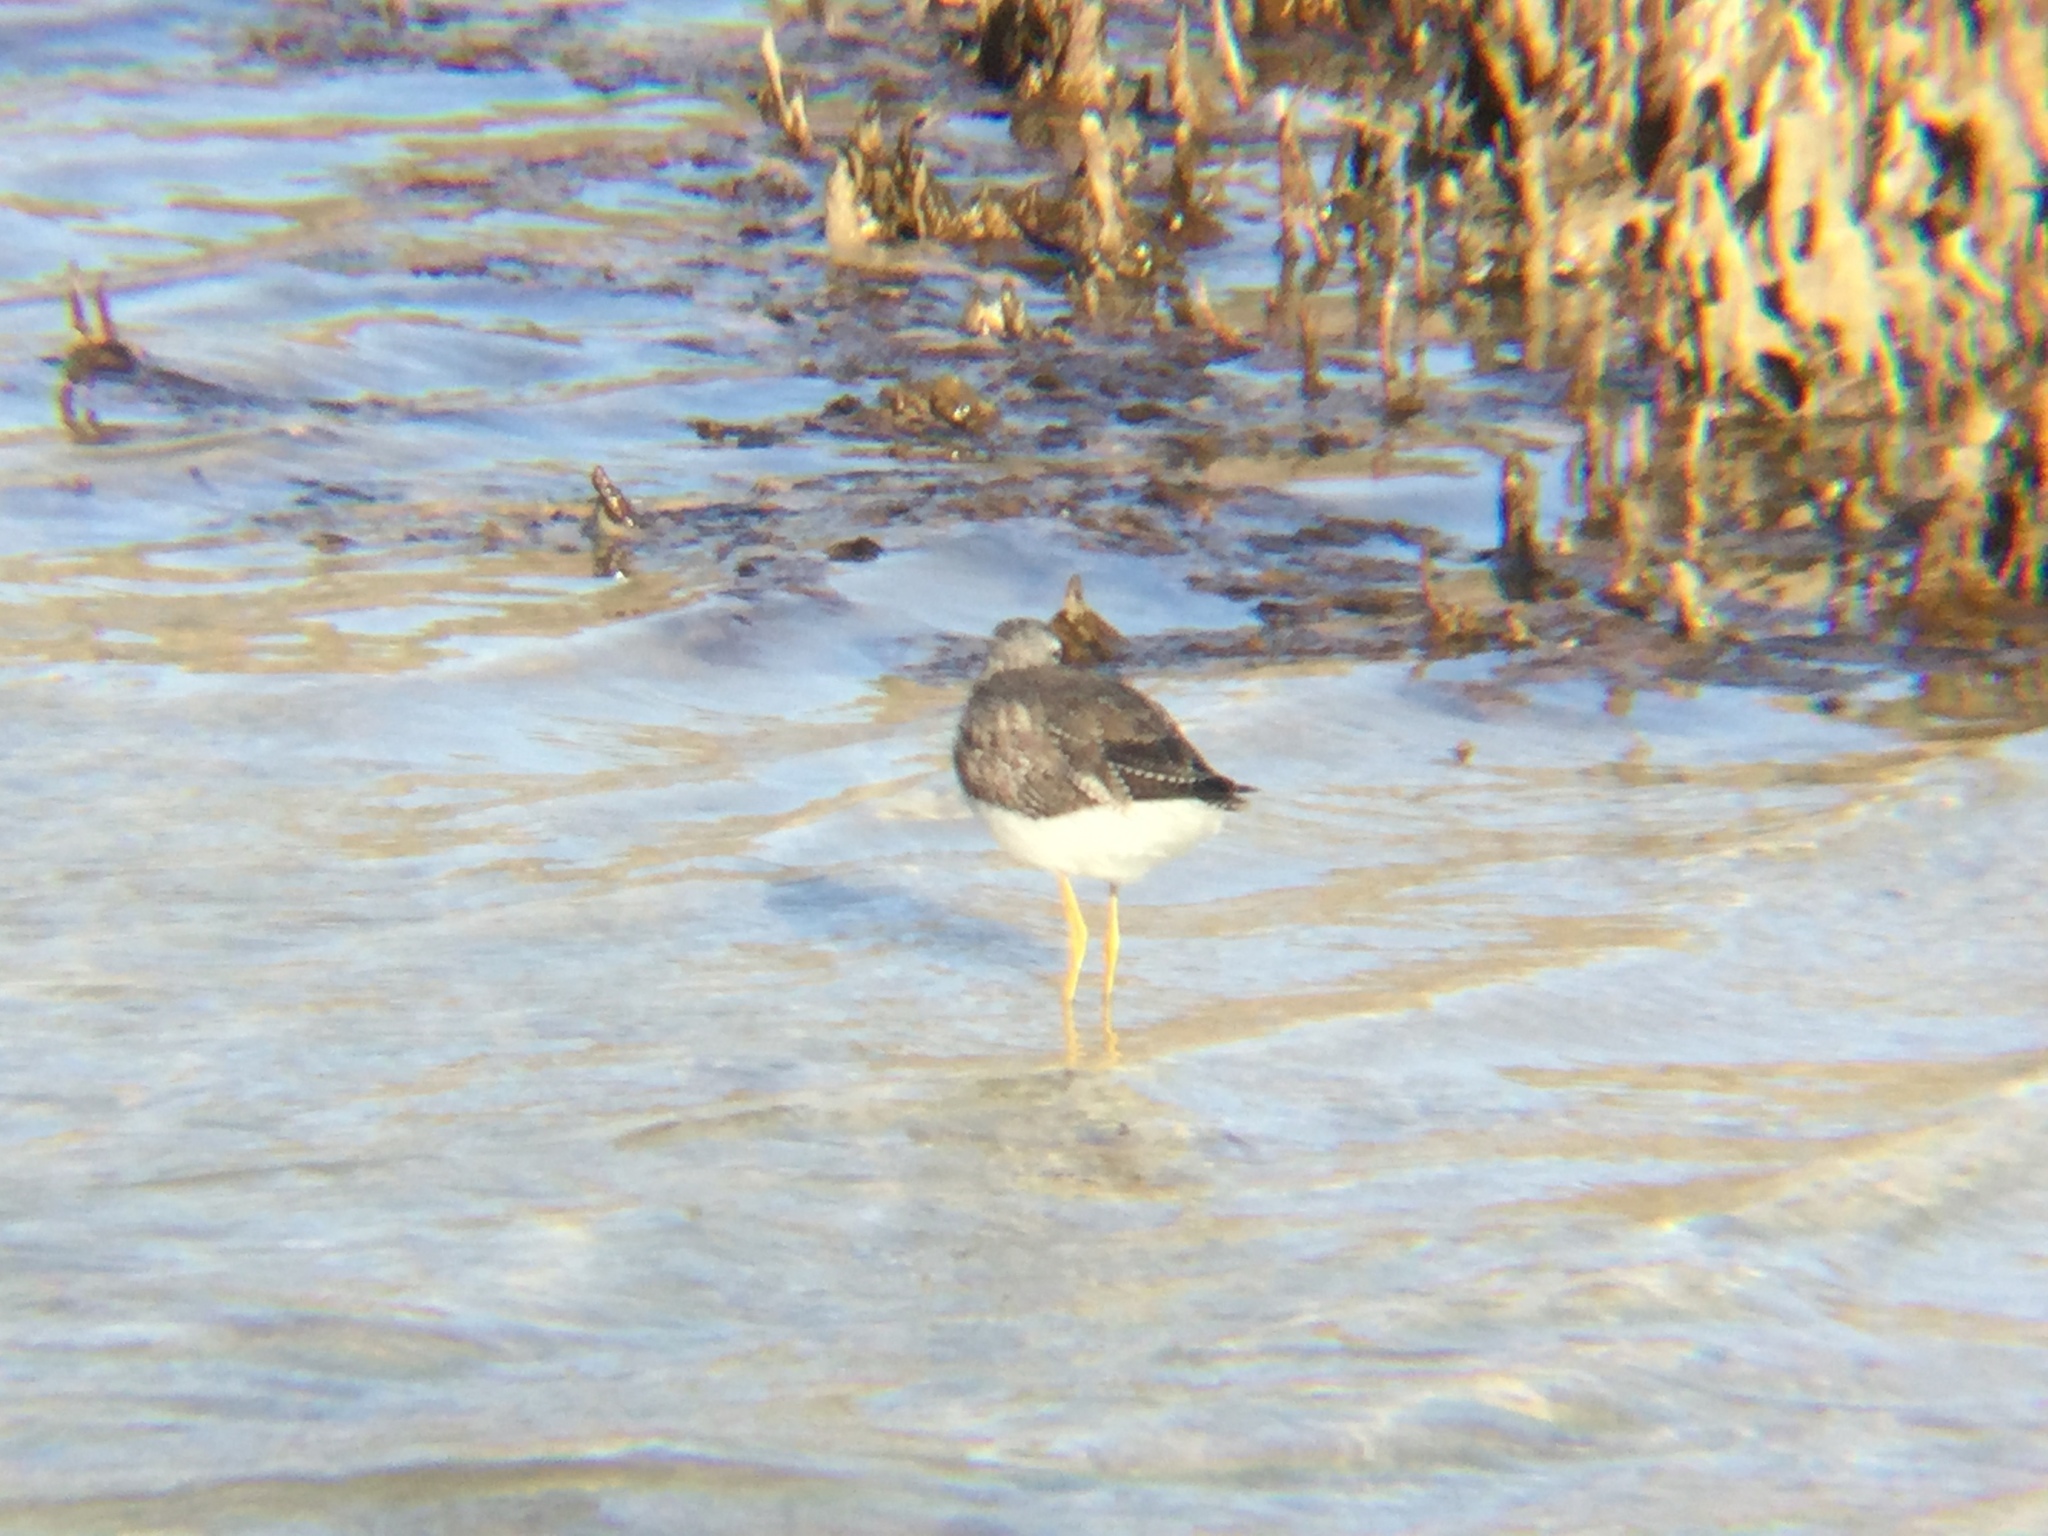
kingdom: Animalia
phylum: Chordata
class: Aves
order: Charadriiformes
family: Scolopacidae
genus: Tringa
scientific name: Tringa melanoleuca
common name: Greater yellowlegs
